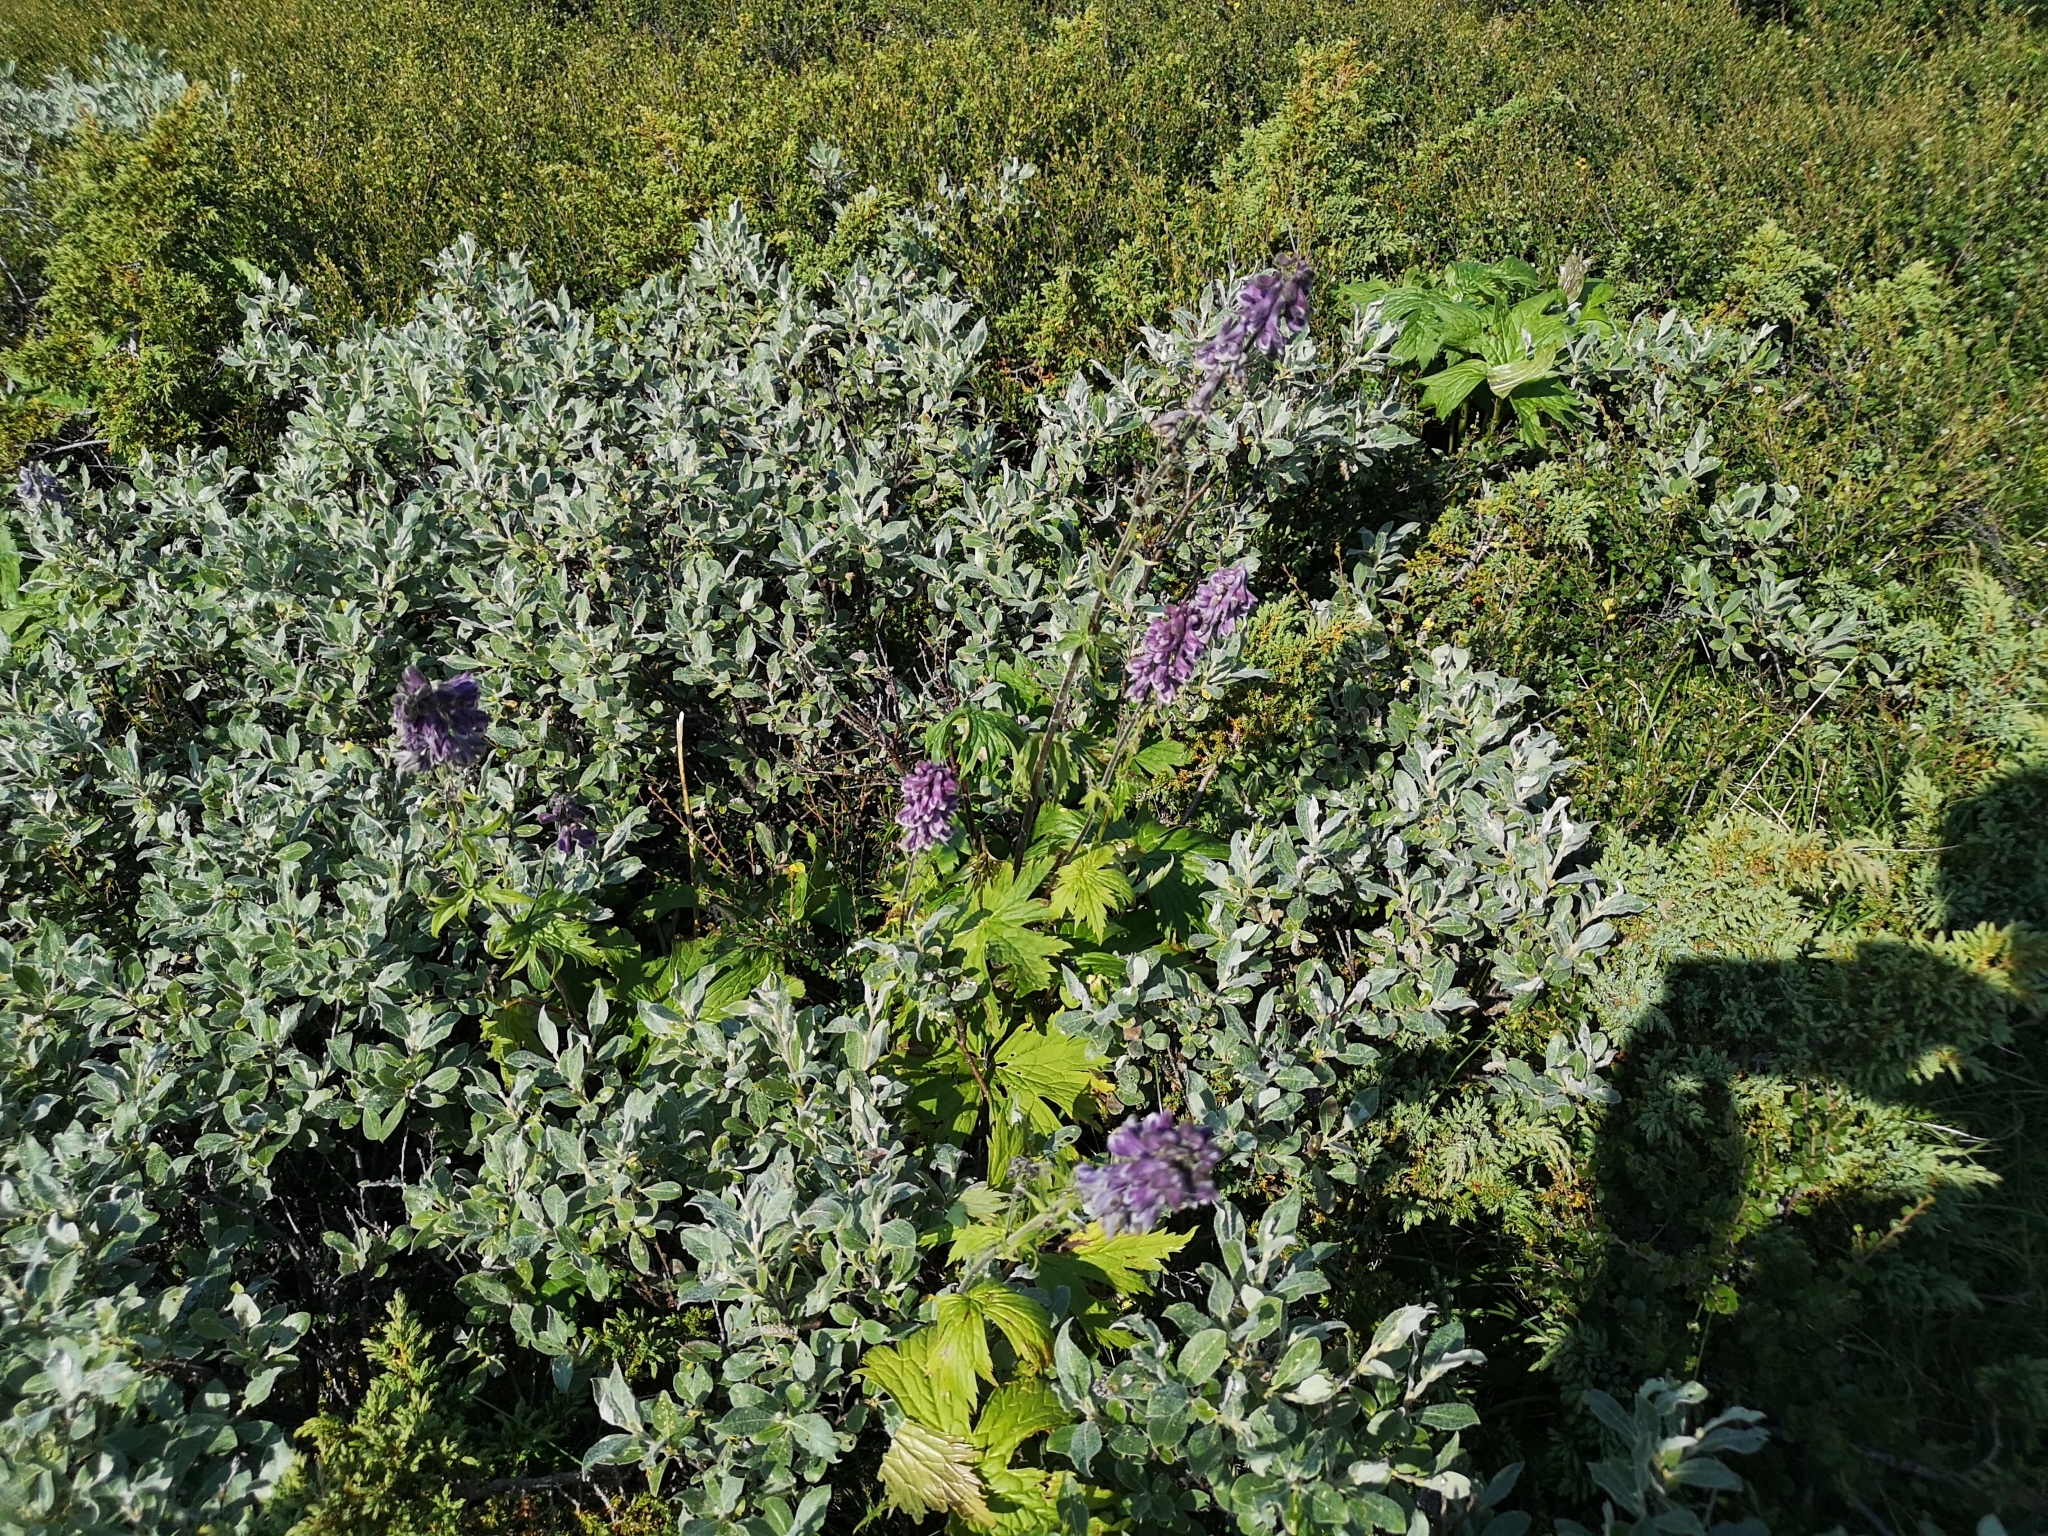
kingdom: Plantae
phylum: Tracheophyta
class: Magnoliopsida
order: Ranunculales
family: Ranunculaceae
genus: Aconitum
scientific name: Aconitum septentrionale
